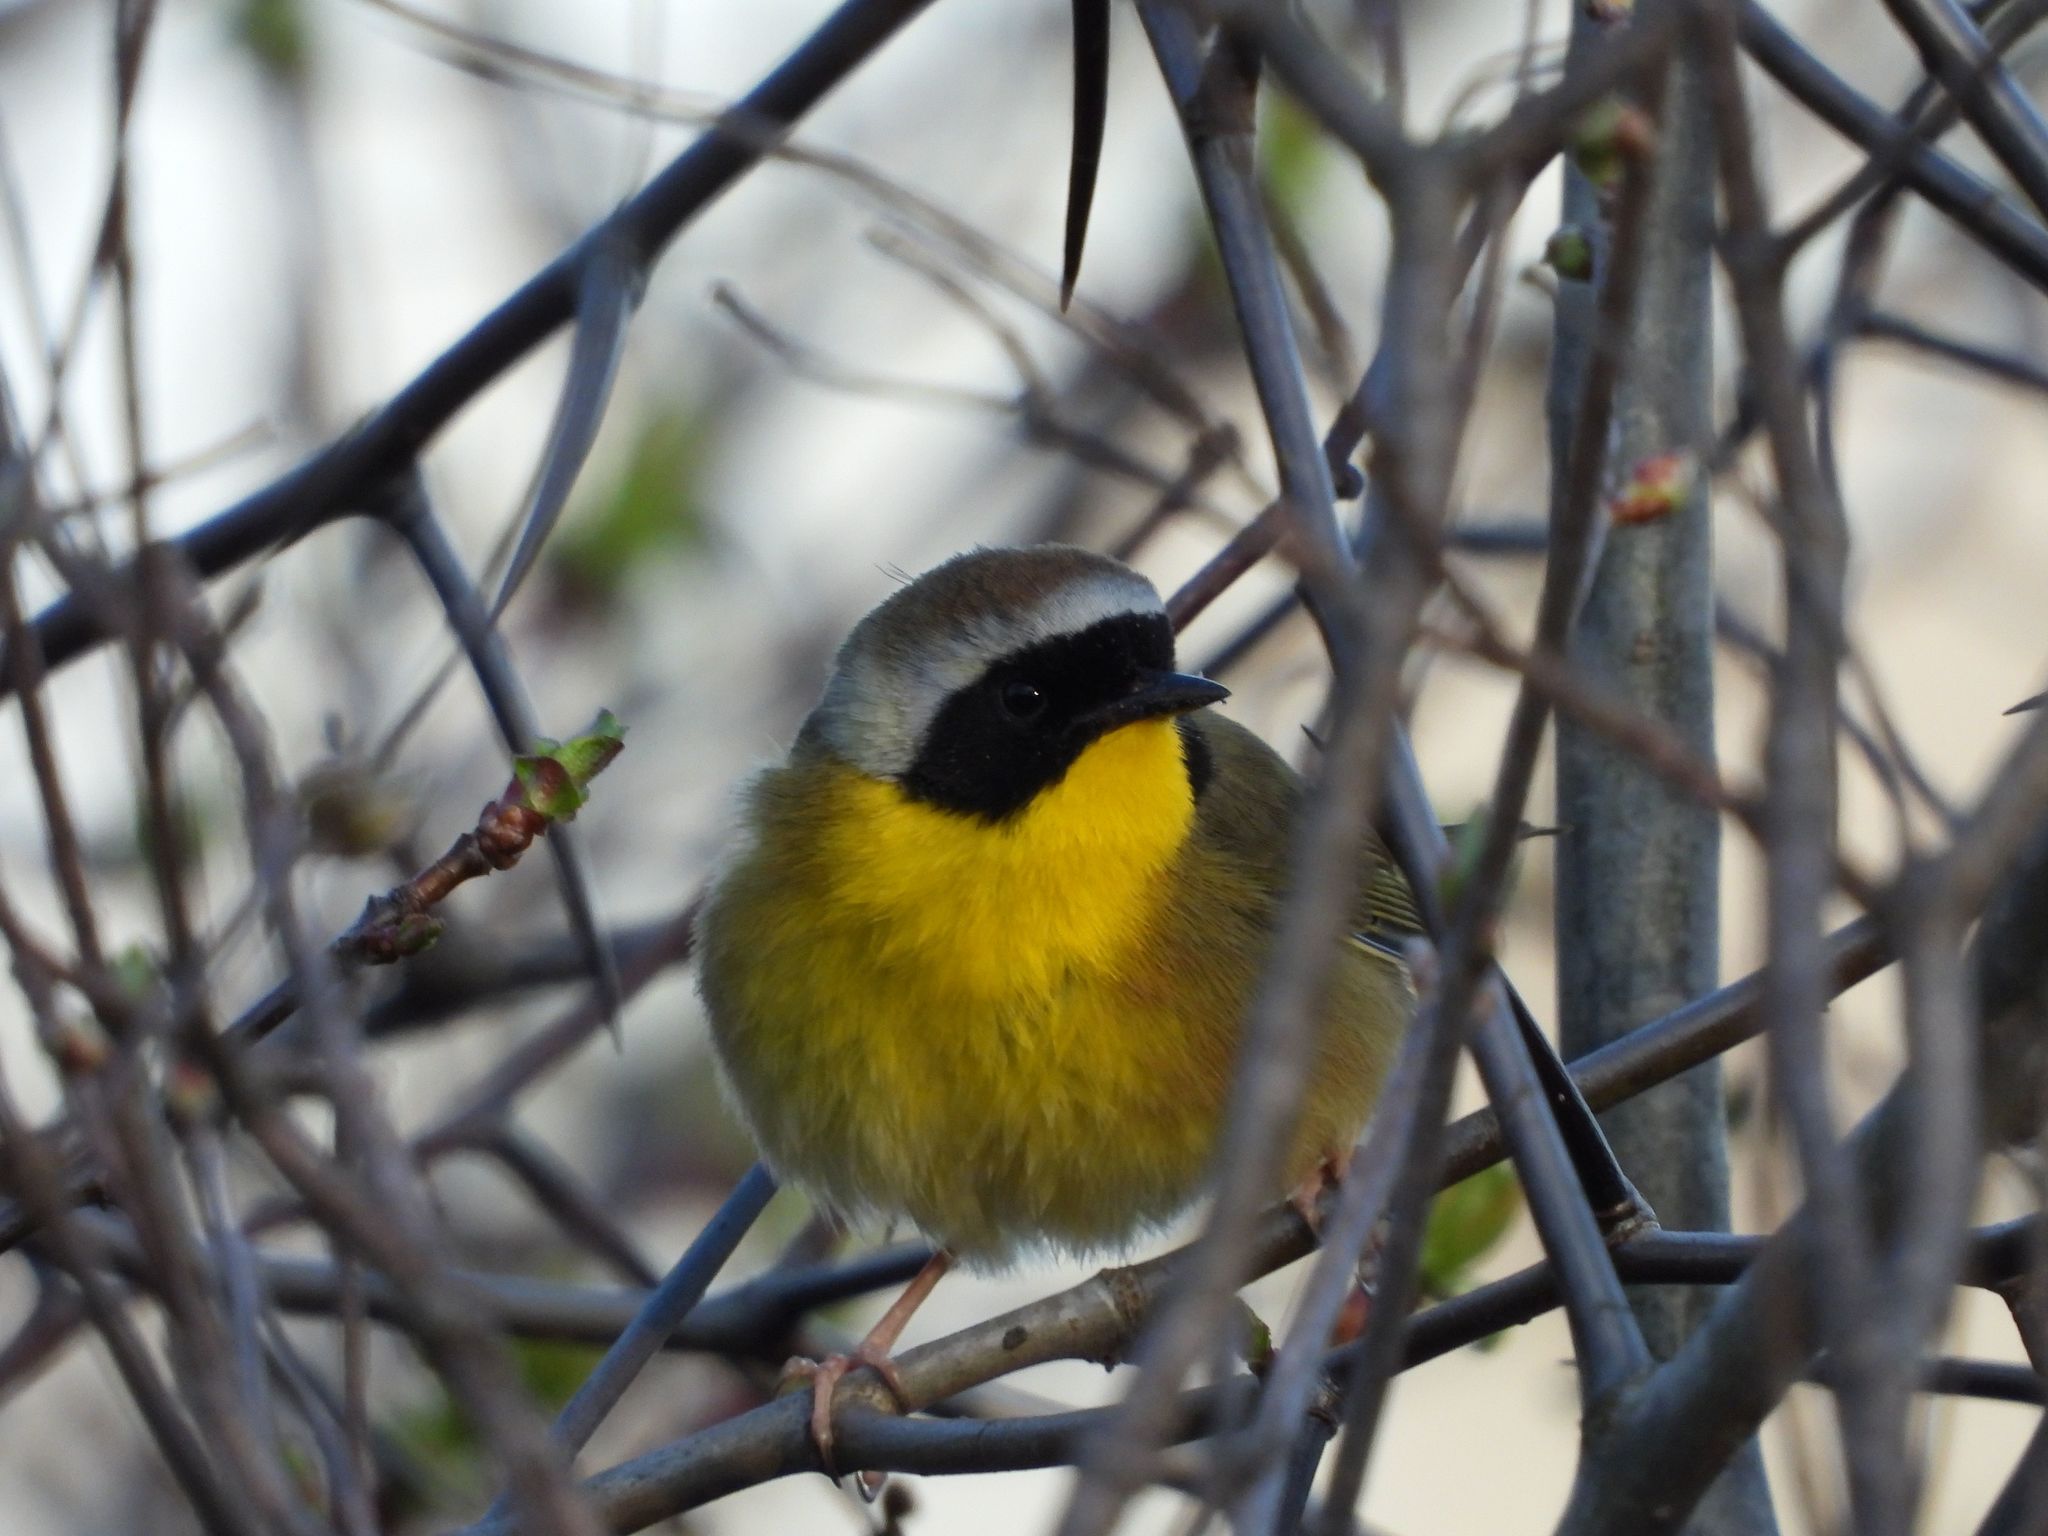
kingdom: Animalia
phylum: Chordata
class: Aves
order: Passeriformes
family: Parulidae
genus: Geothlypis
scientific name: Geothlypis trichas
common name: Common yellowthroat
